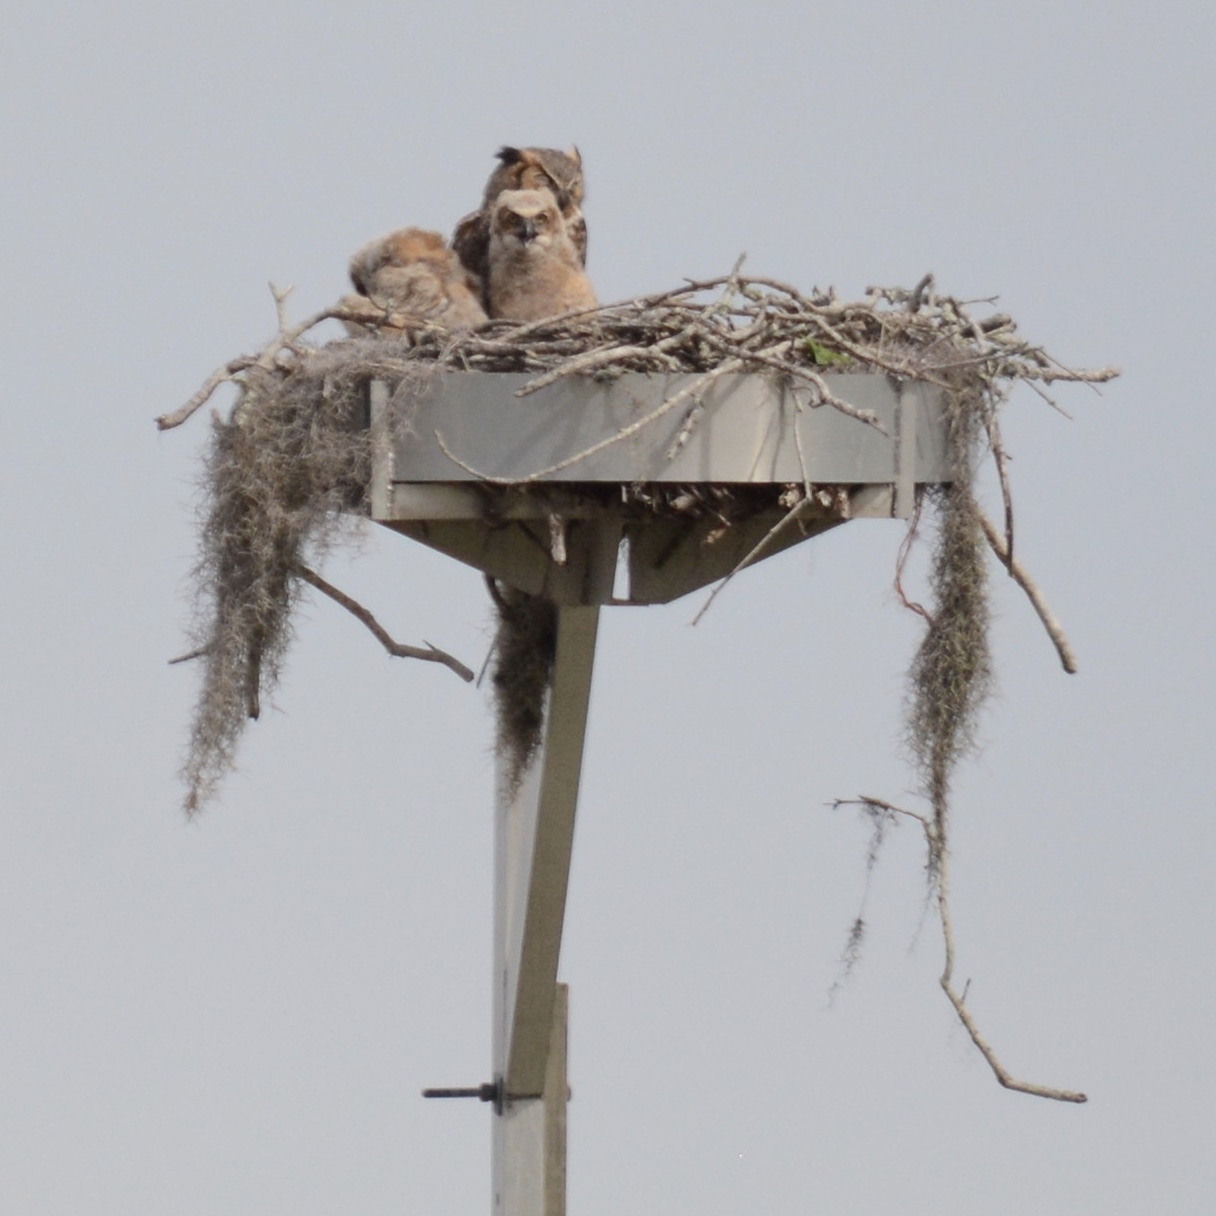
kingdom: Animalia
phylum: Chordata
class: Aves
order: Strigiformes
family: Strigidae
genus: Bubo
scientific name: Bubo virginianus
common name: Great horned owl
